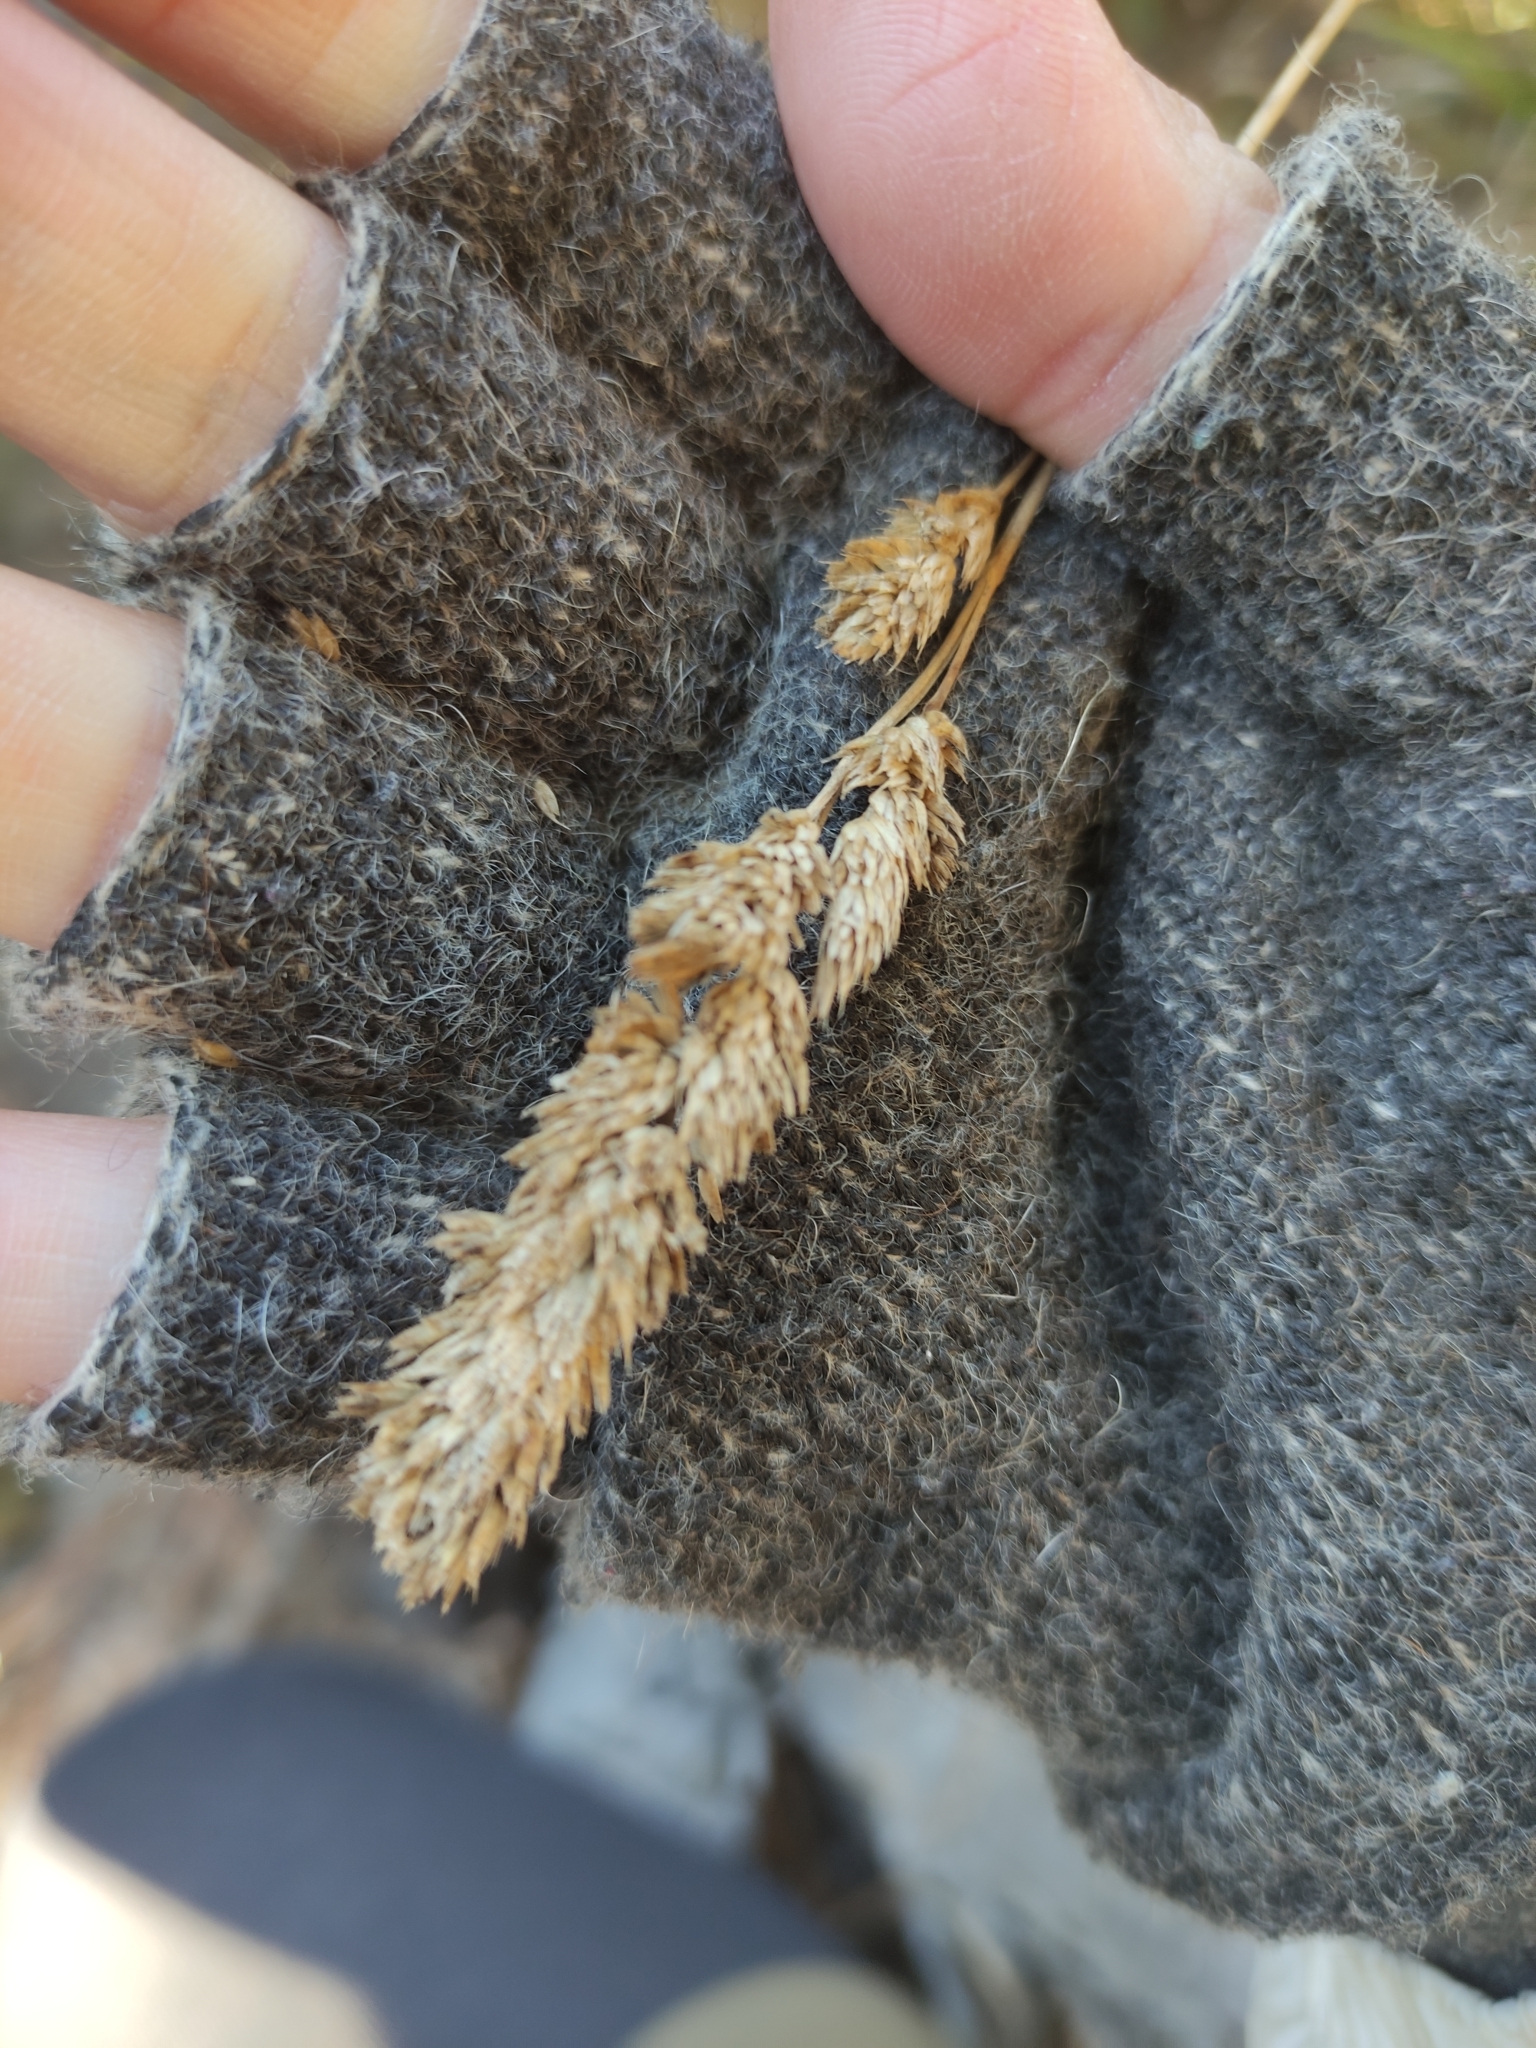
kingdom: Plantae
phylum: Tracheophyta
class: Liliopsida
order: Poales
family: Poaceae
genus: Dactylis
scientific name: Dactylis glomerata
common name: Orchardgrass
